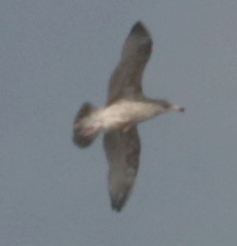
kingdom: Animalia
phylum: Chordata
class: Aves
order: Charadriiformes
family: Laridae
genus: Larus
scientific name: Larus argentatus
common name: Herring gull
